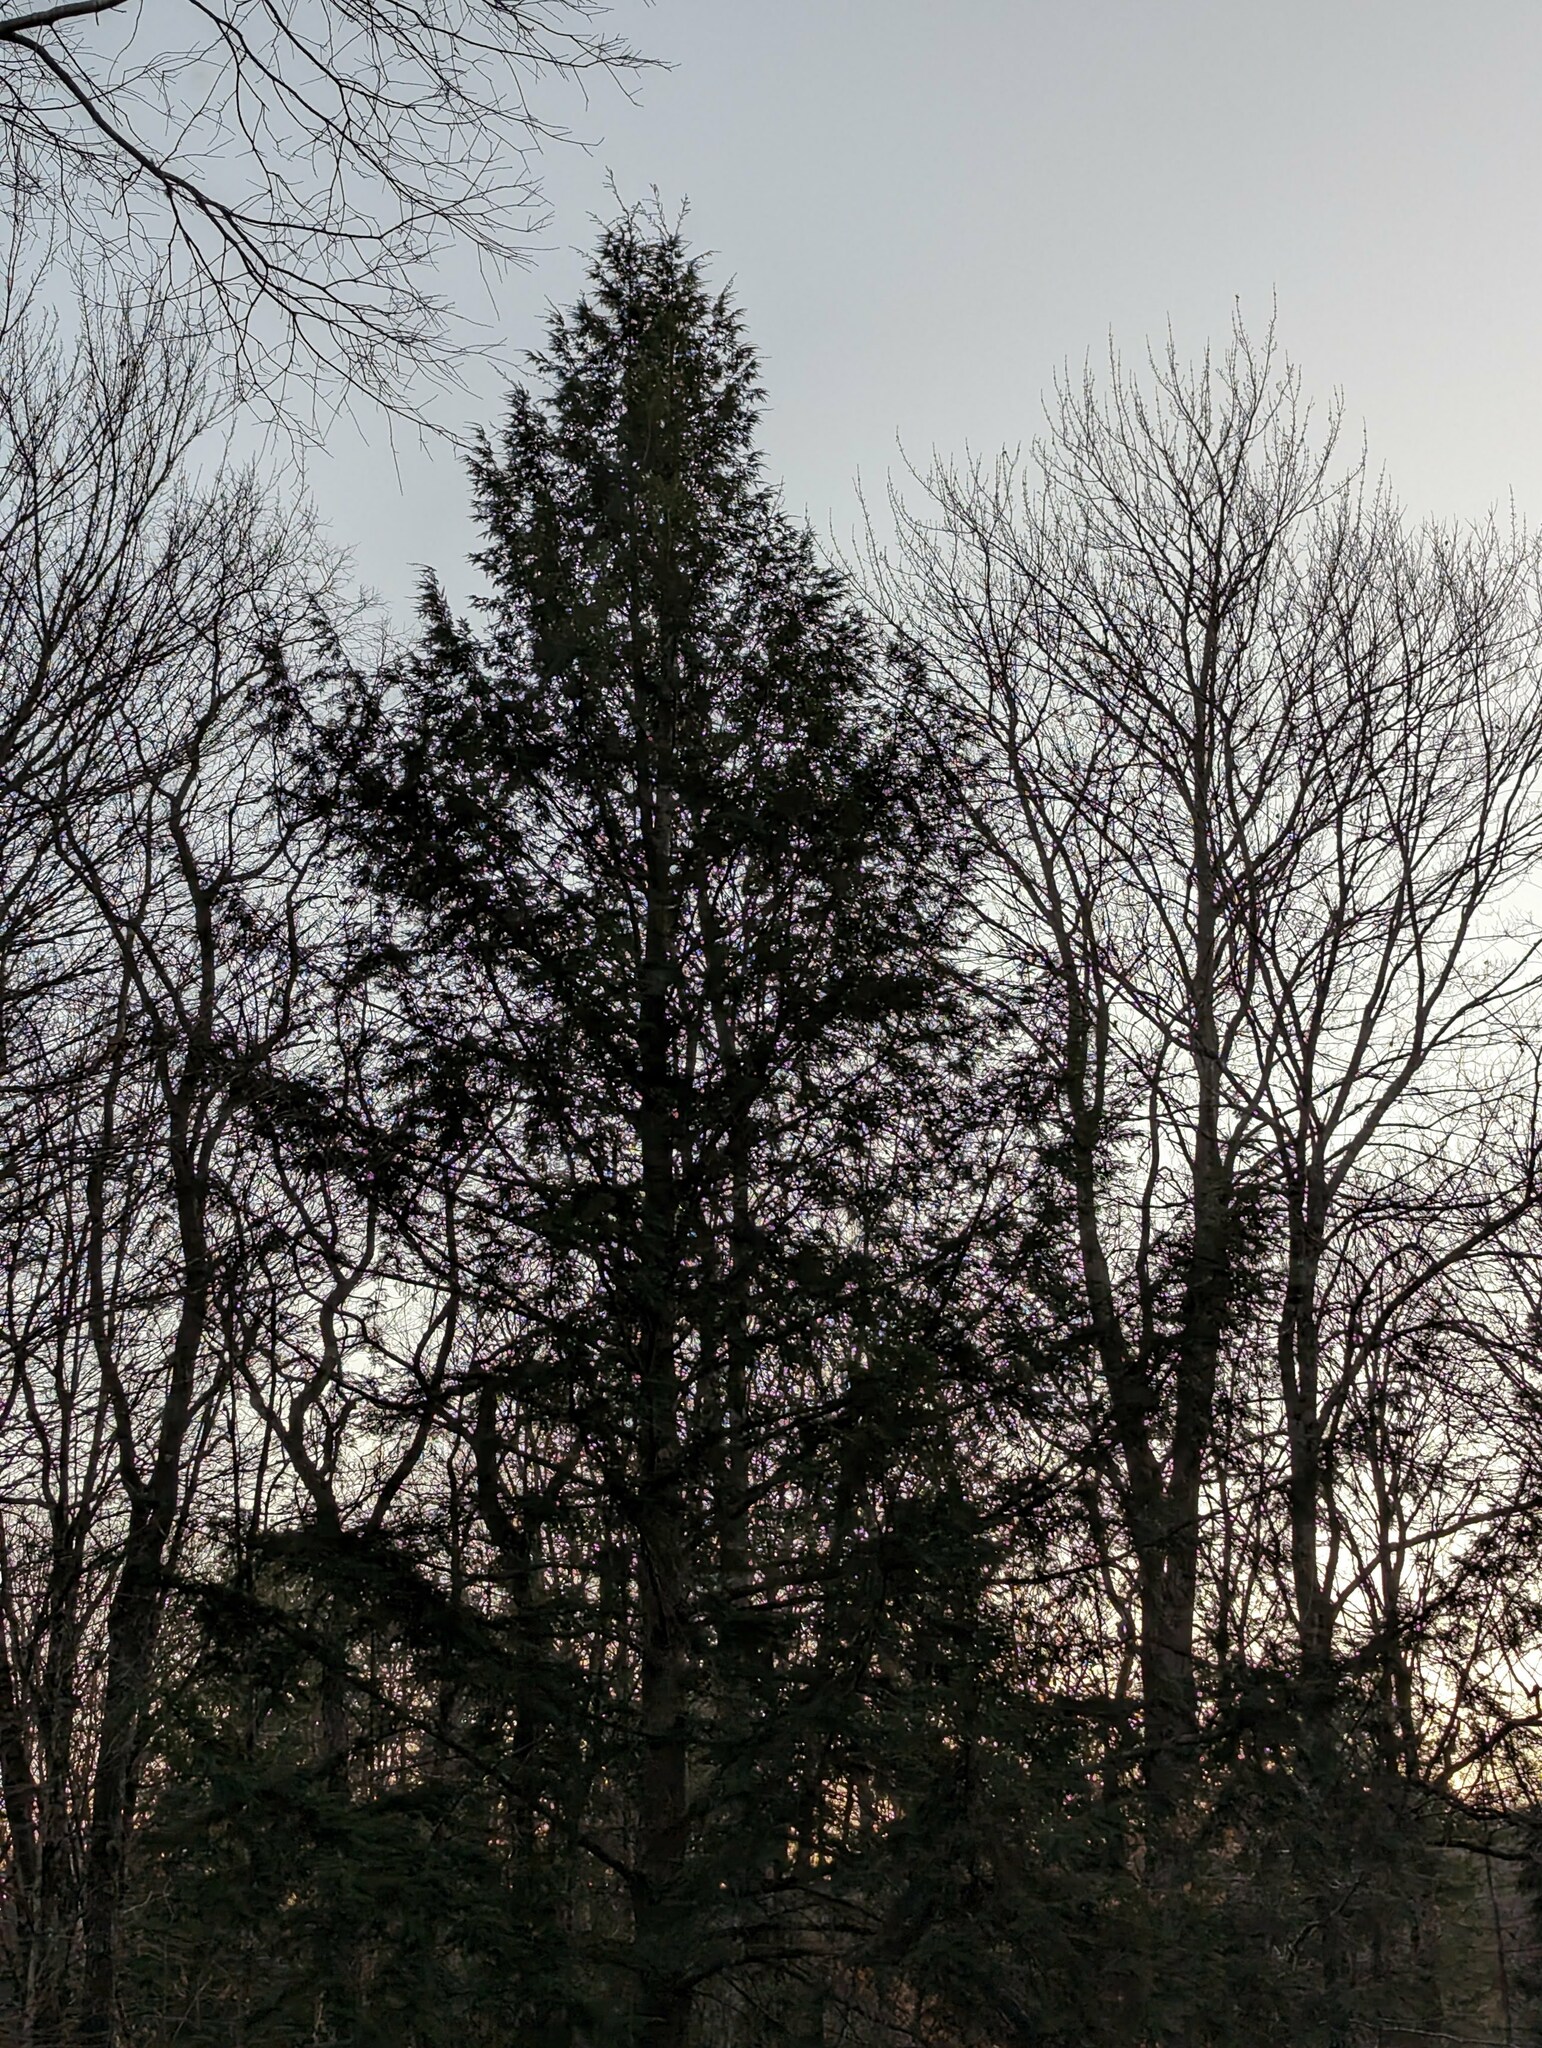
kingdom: Plantae
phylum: Tracheophyta
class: Pinopsida
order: Pinales
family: Pinaceae
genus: Tsuga
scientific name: Tsuga canadensis
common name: Eastern hemlock
